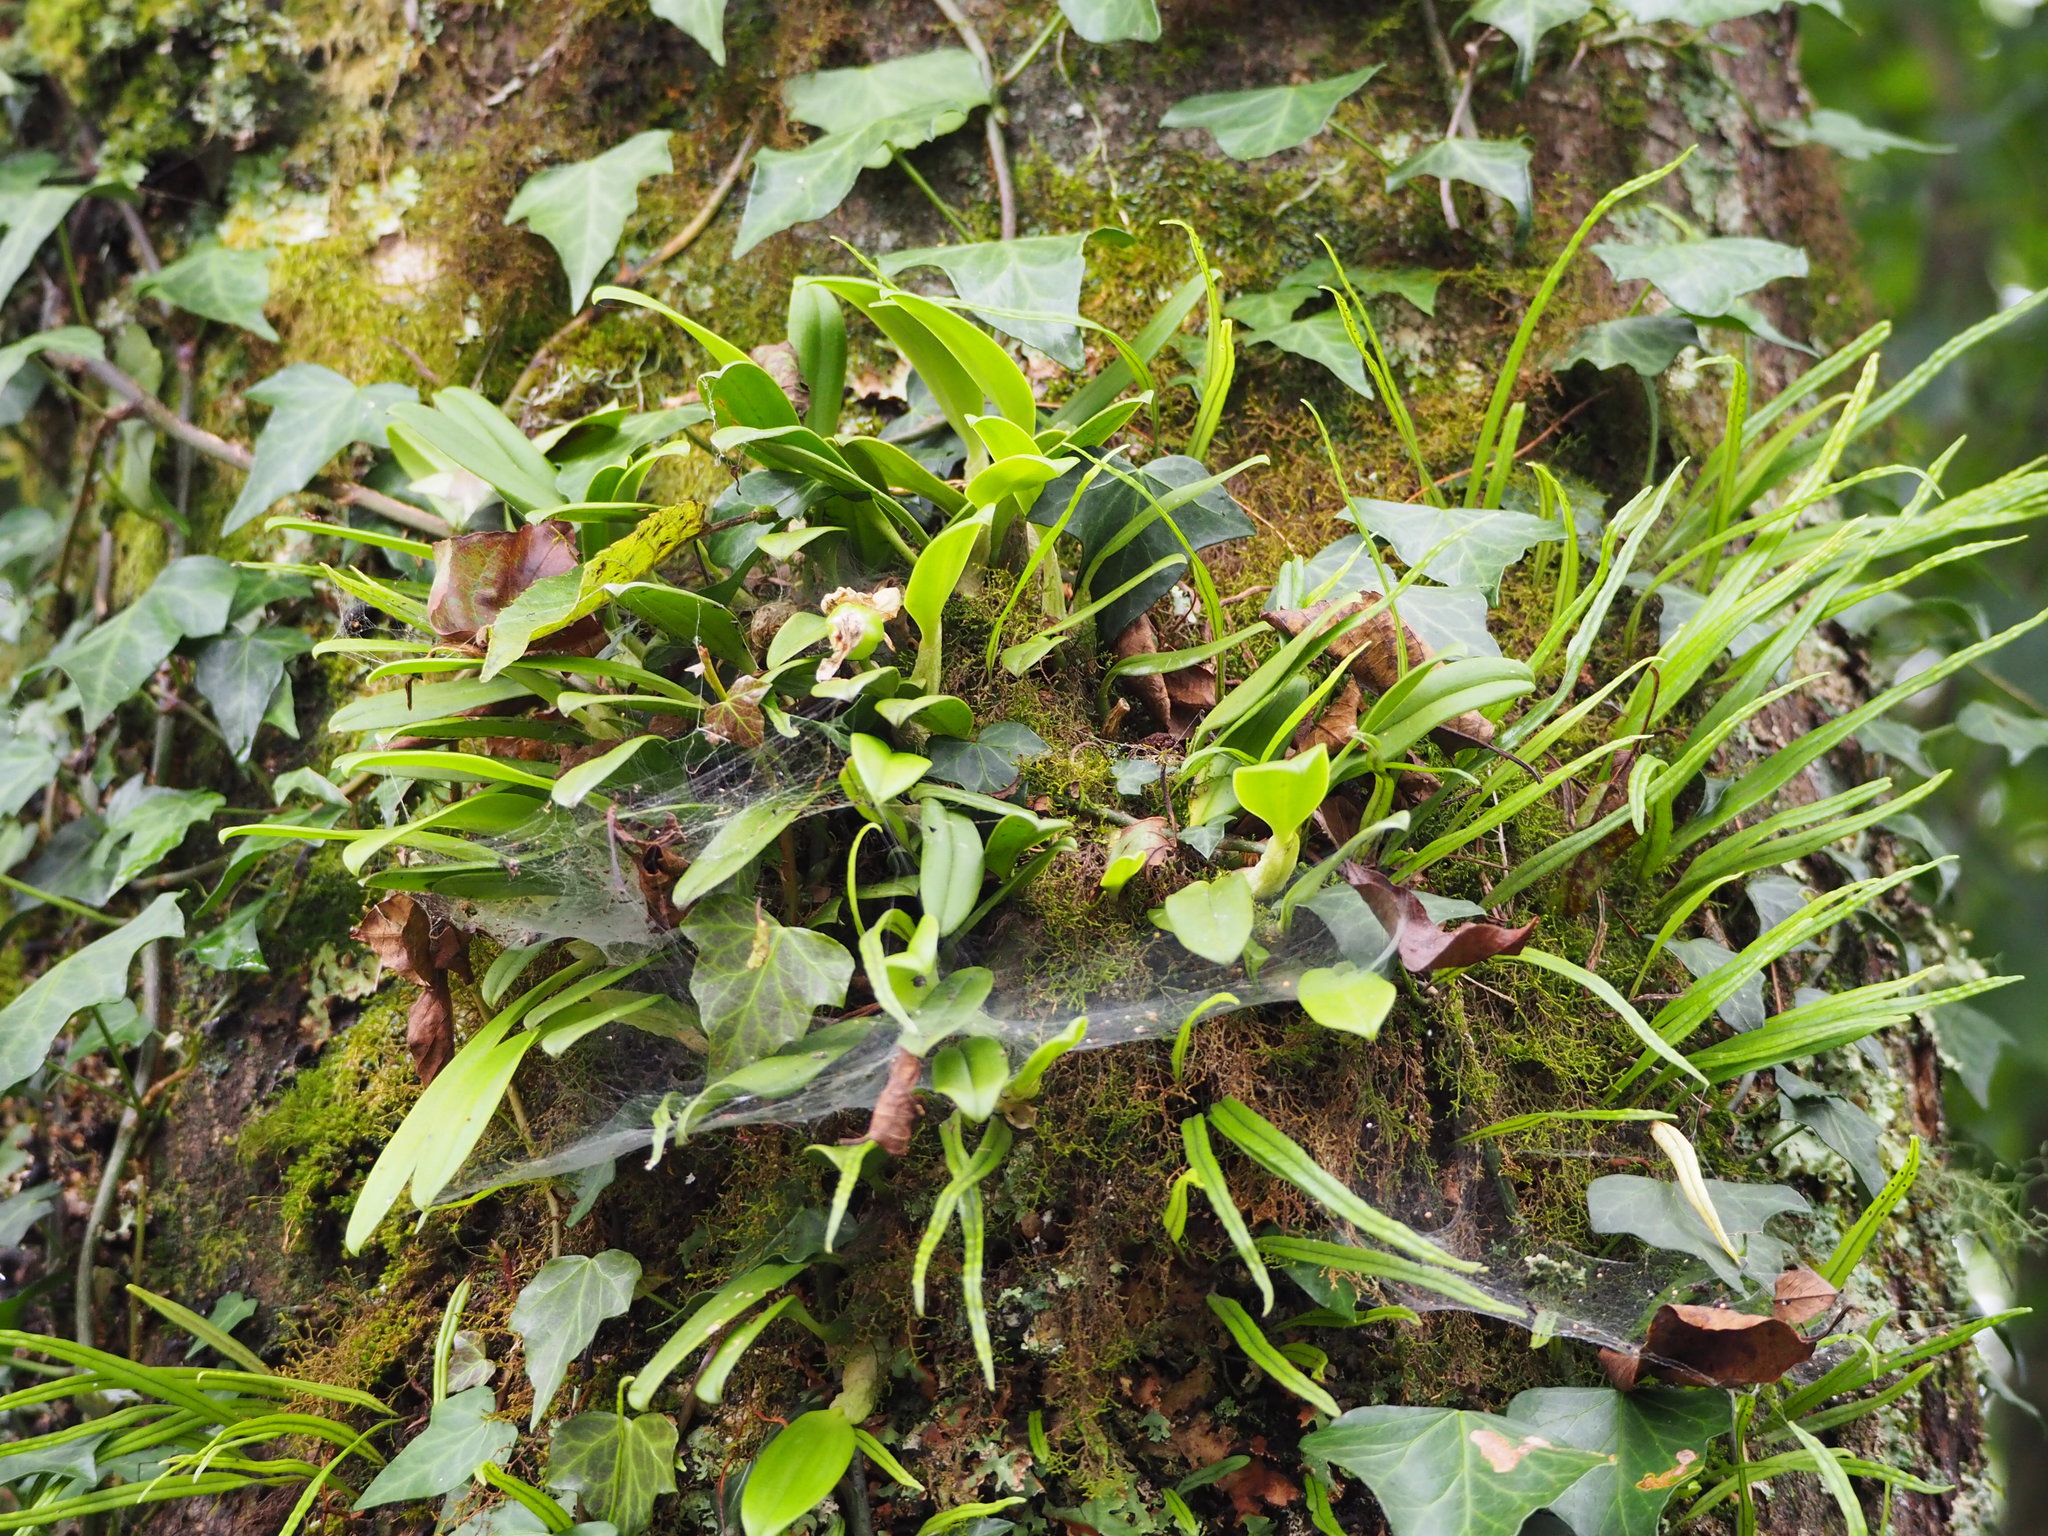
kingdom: Plantae
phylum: Tracheophyta
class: Liliopsida
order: Asparagales
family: Orchidaceae
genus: Bulbophyllum
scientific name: Bulbophyllum pectinatum
